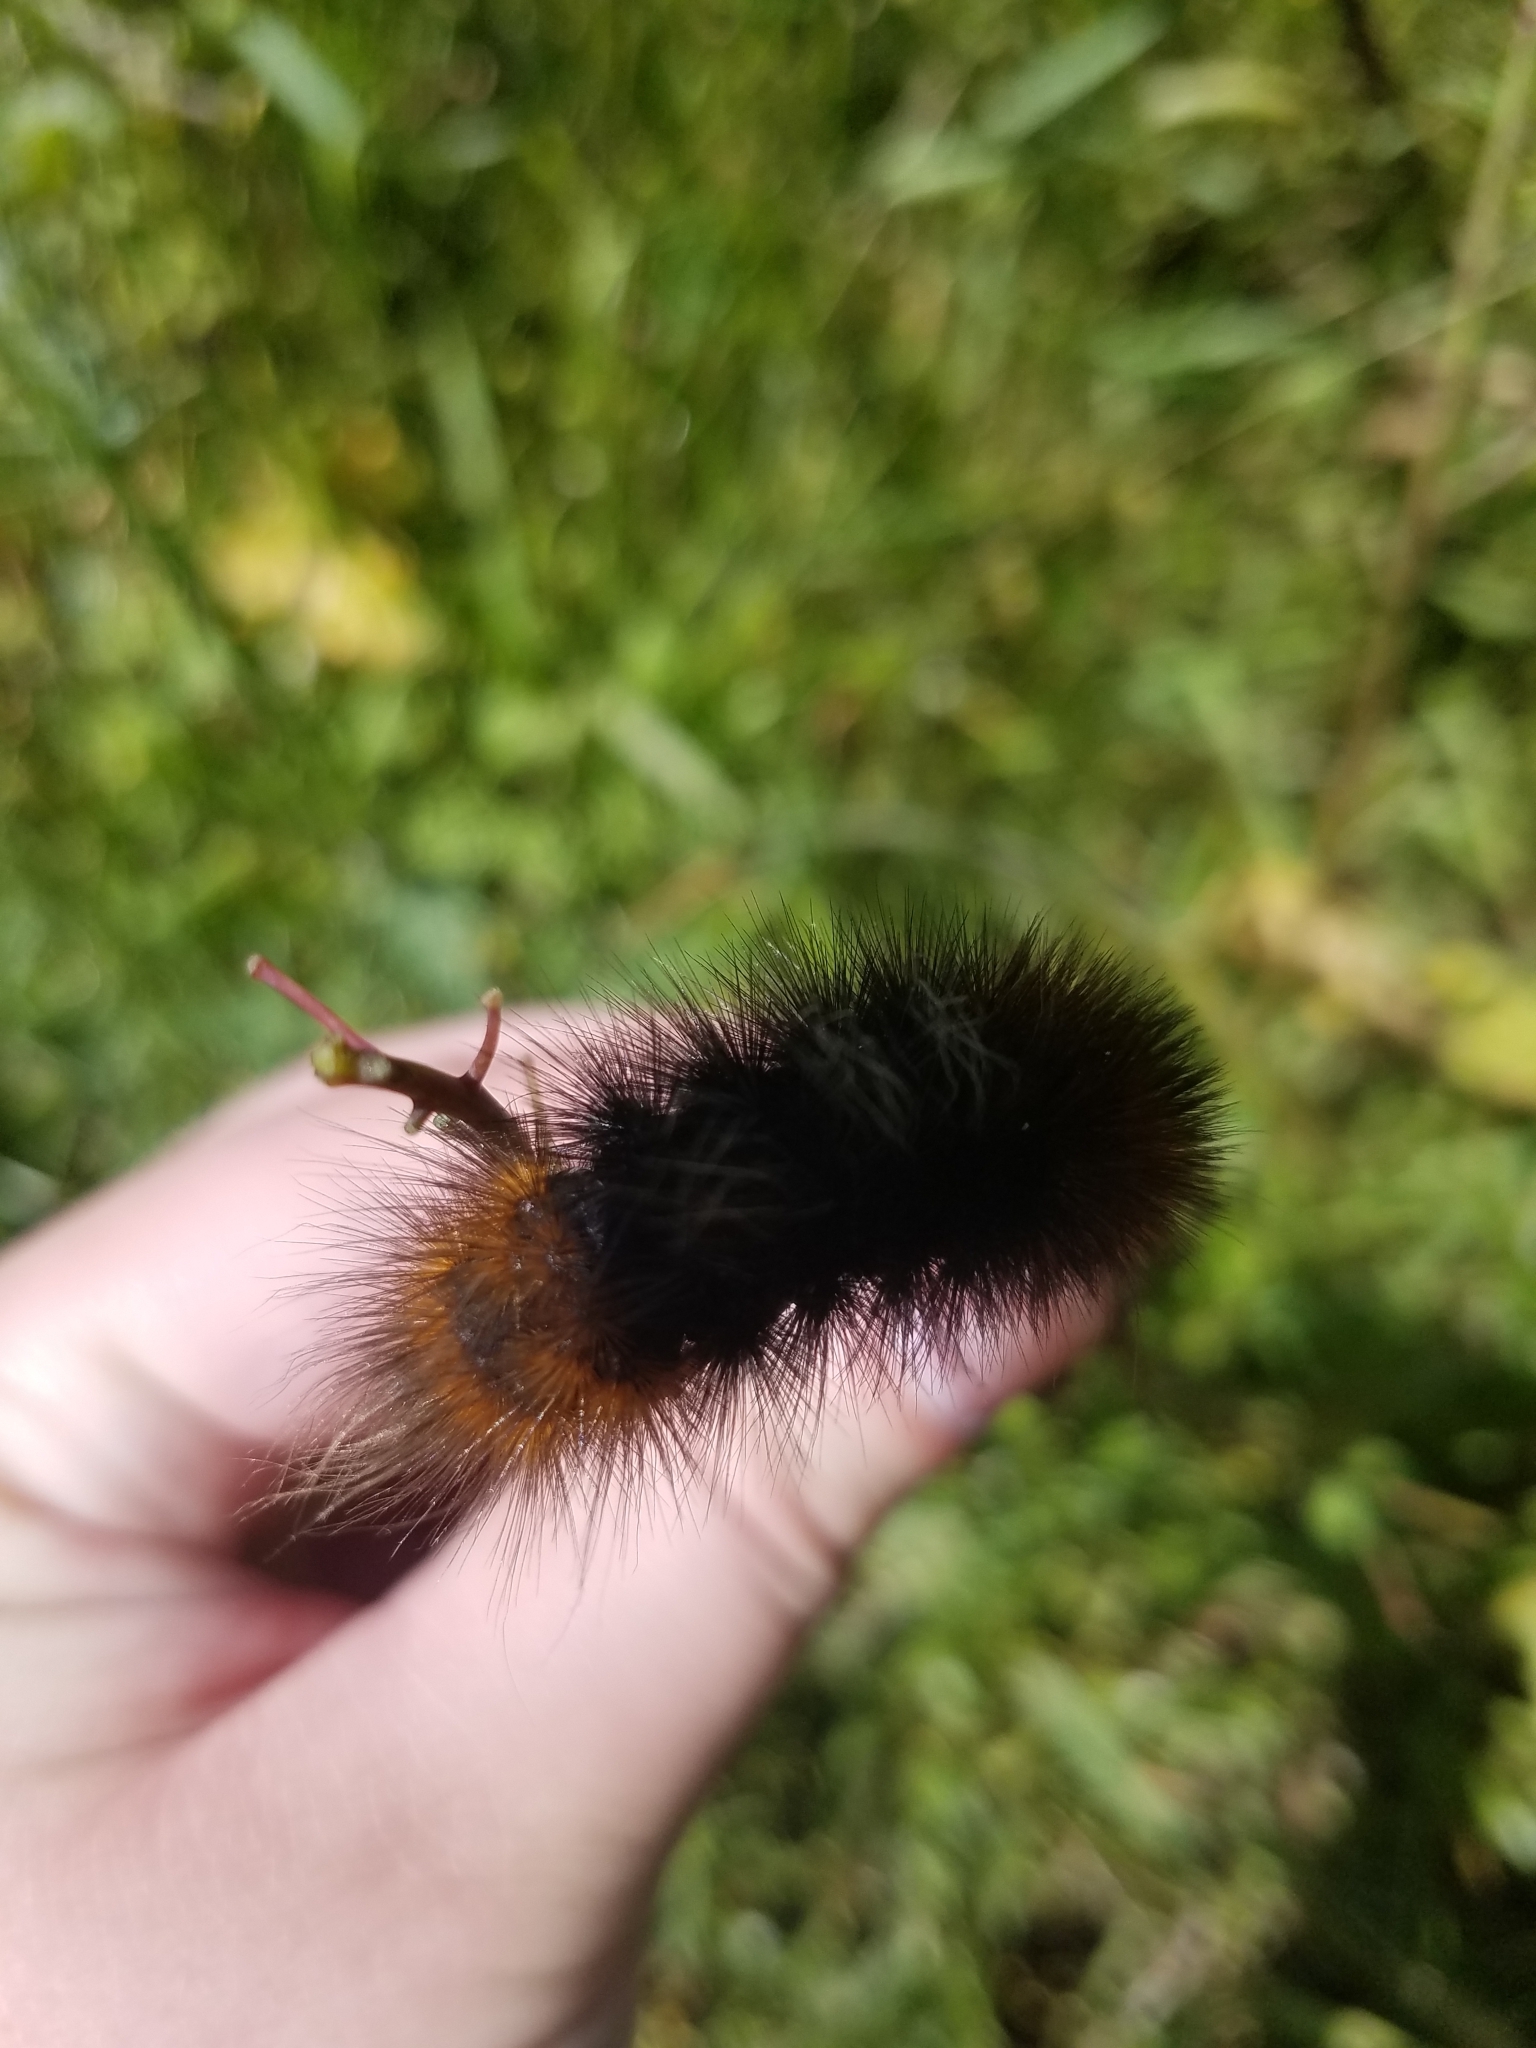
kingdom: Animalia
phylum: Arthropoda
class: Insecta
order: Lepidoptera
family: Erebidae
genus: Arctia
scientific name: Arctia tigrina
